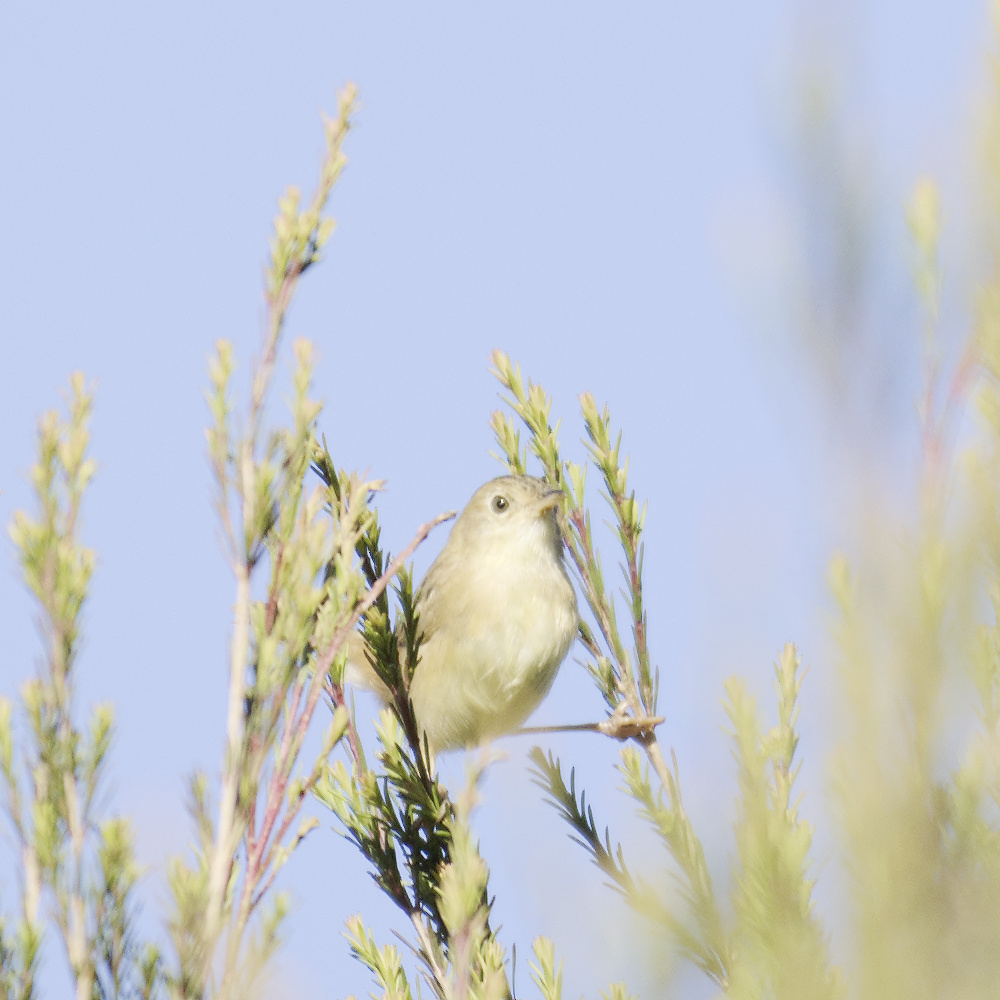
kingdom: Animalia
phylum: Chordata
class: Aves
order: Passeriformes
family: Cisticolidae
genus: Cisticola
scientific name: Cisticola exilis
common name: Golden-headed cisticola
